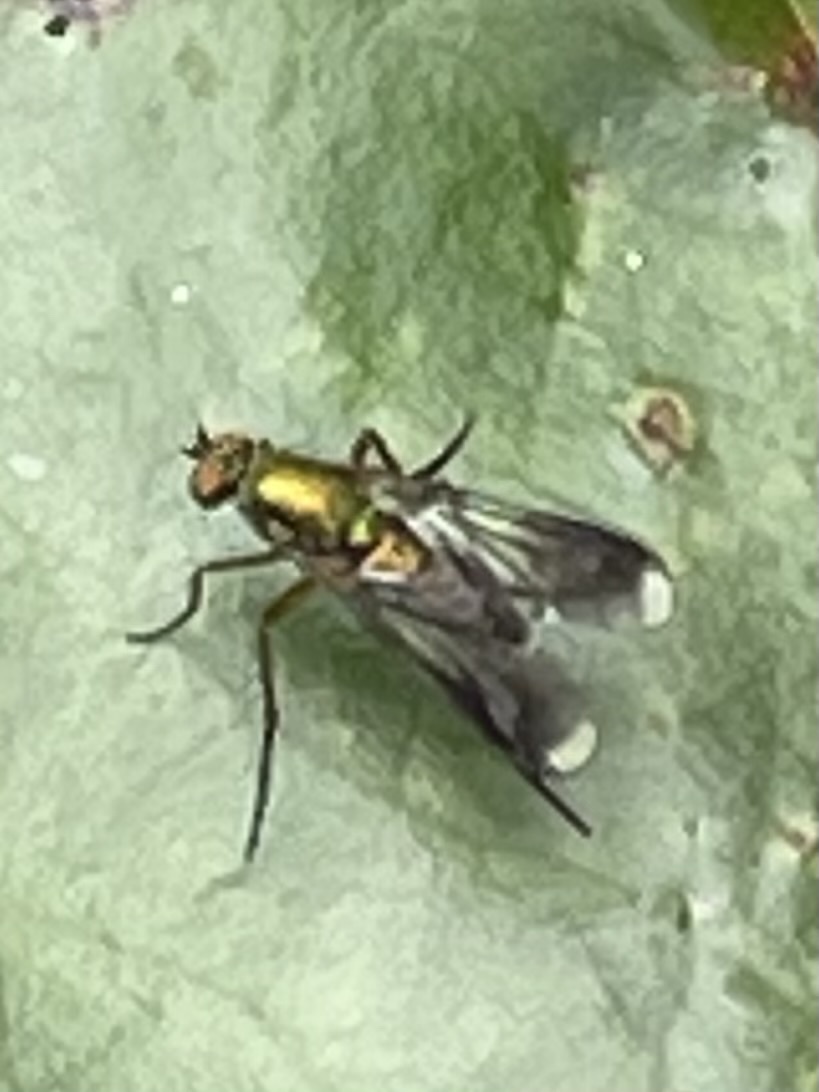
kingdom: Animalia
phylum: Arthropoda
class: Insecta
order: Diptera
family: Dolichopodidae
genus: Poecilobothrus
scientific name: Poecilobothrus nobilitatus
